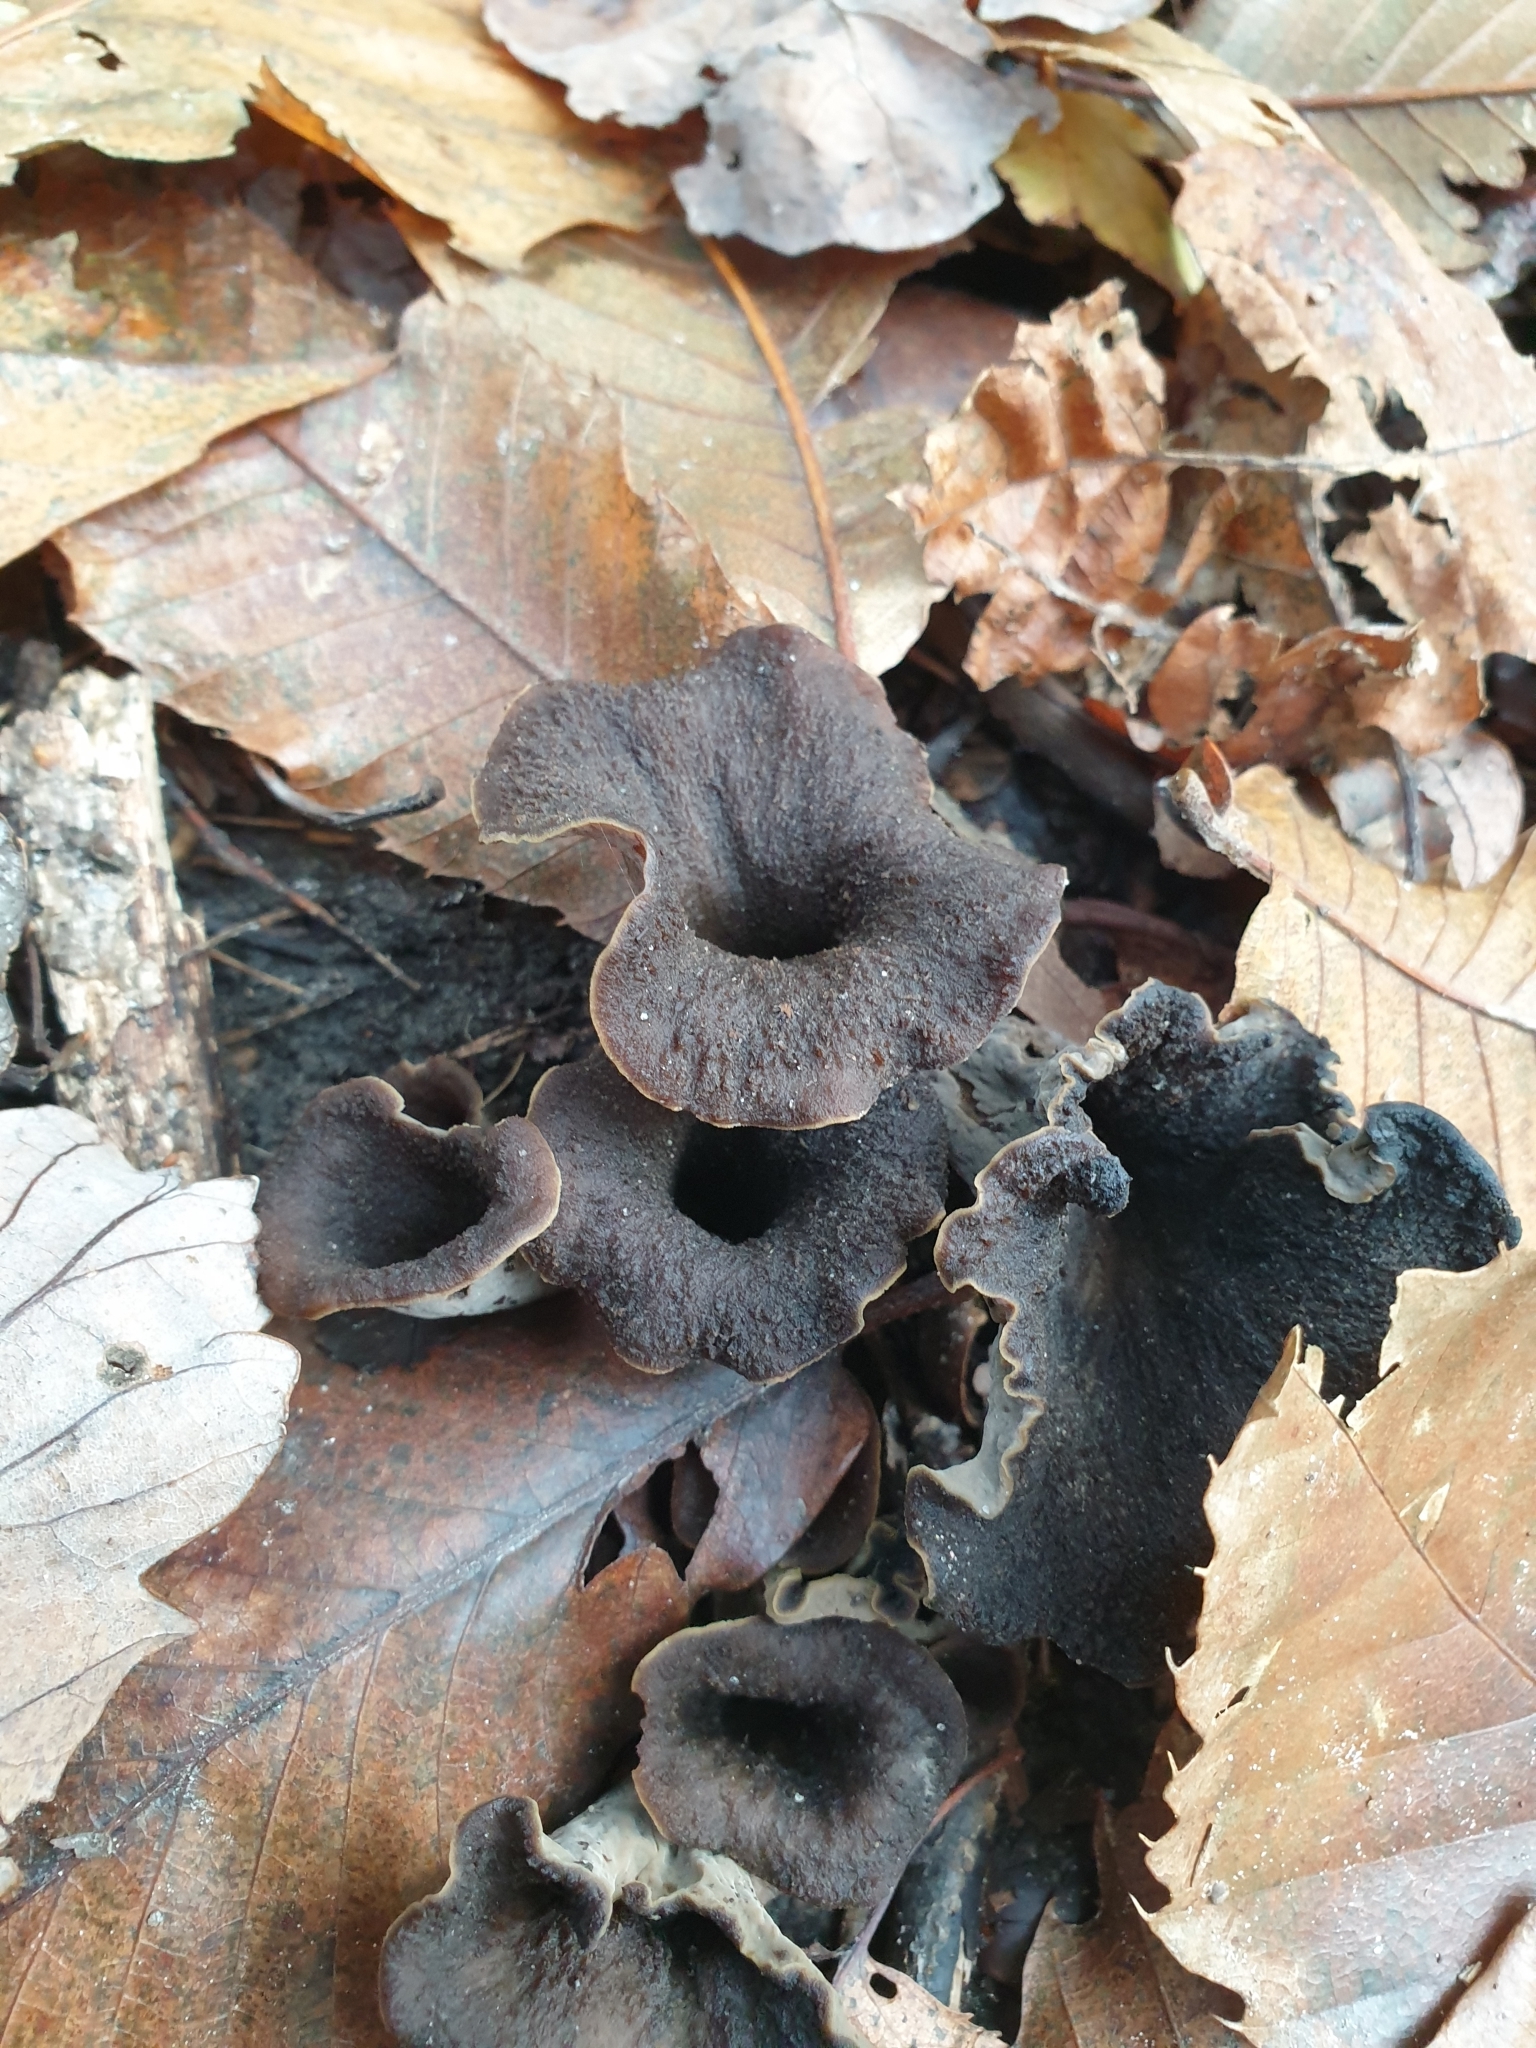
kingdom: Fungi
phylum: Basidiomycota
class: Agaricomycetes
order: Cantharellales
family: Hydnaceae
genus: Craterellus
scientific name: Craterellus cornucopioides
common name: Horn of plenty
